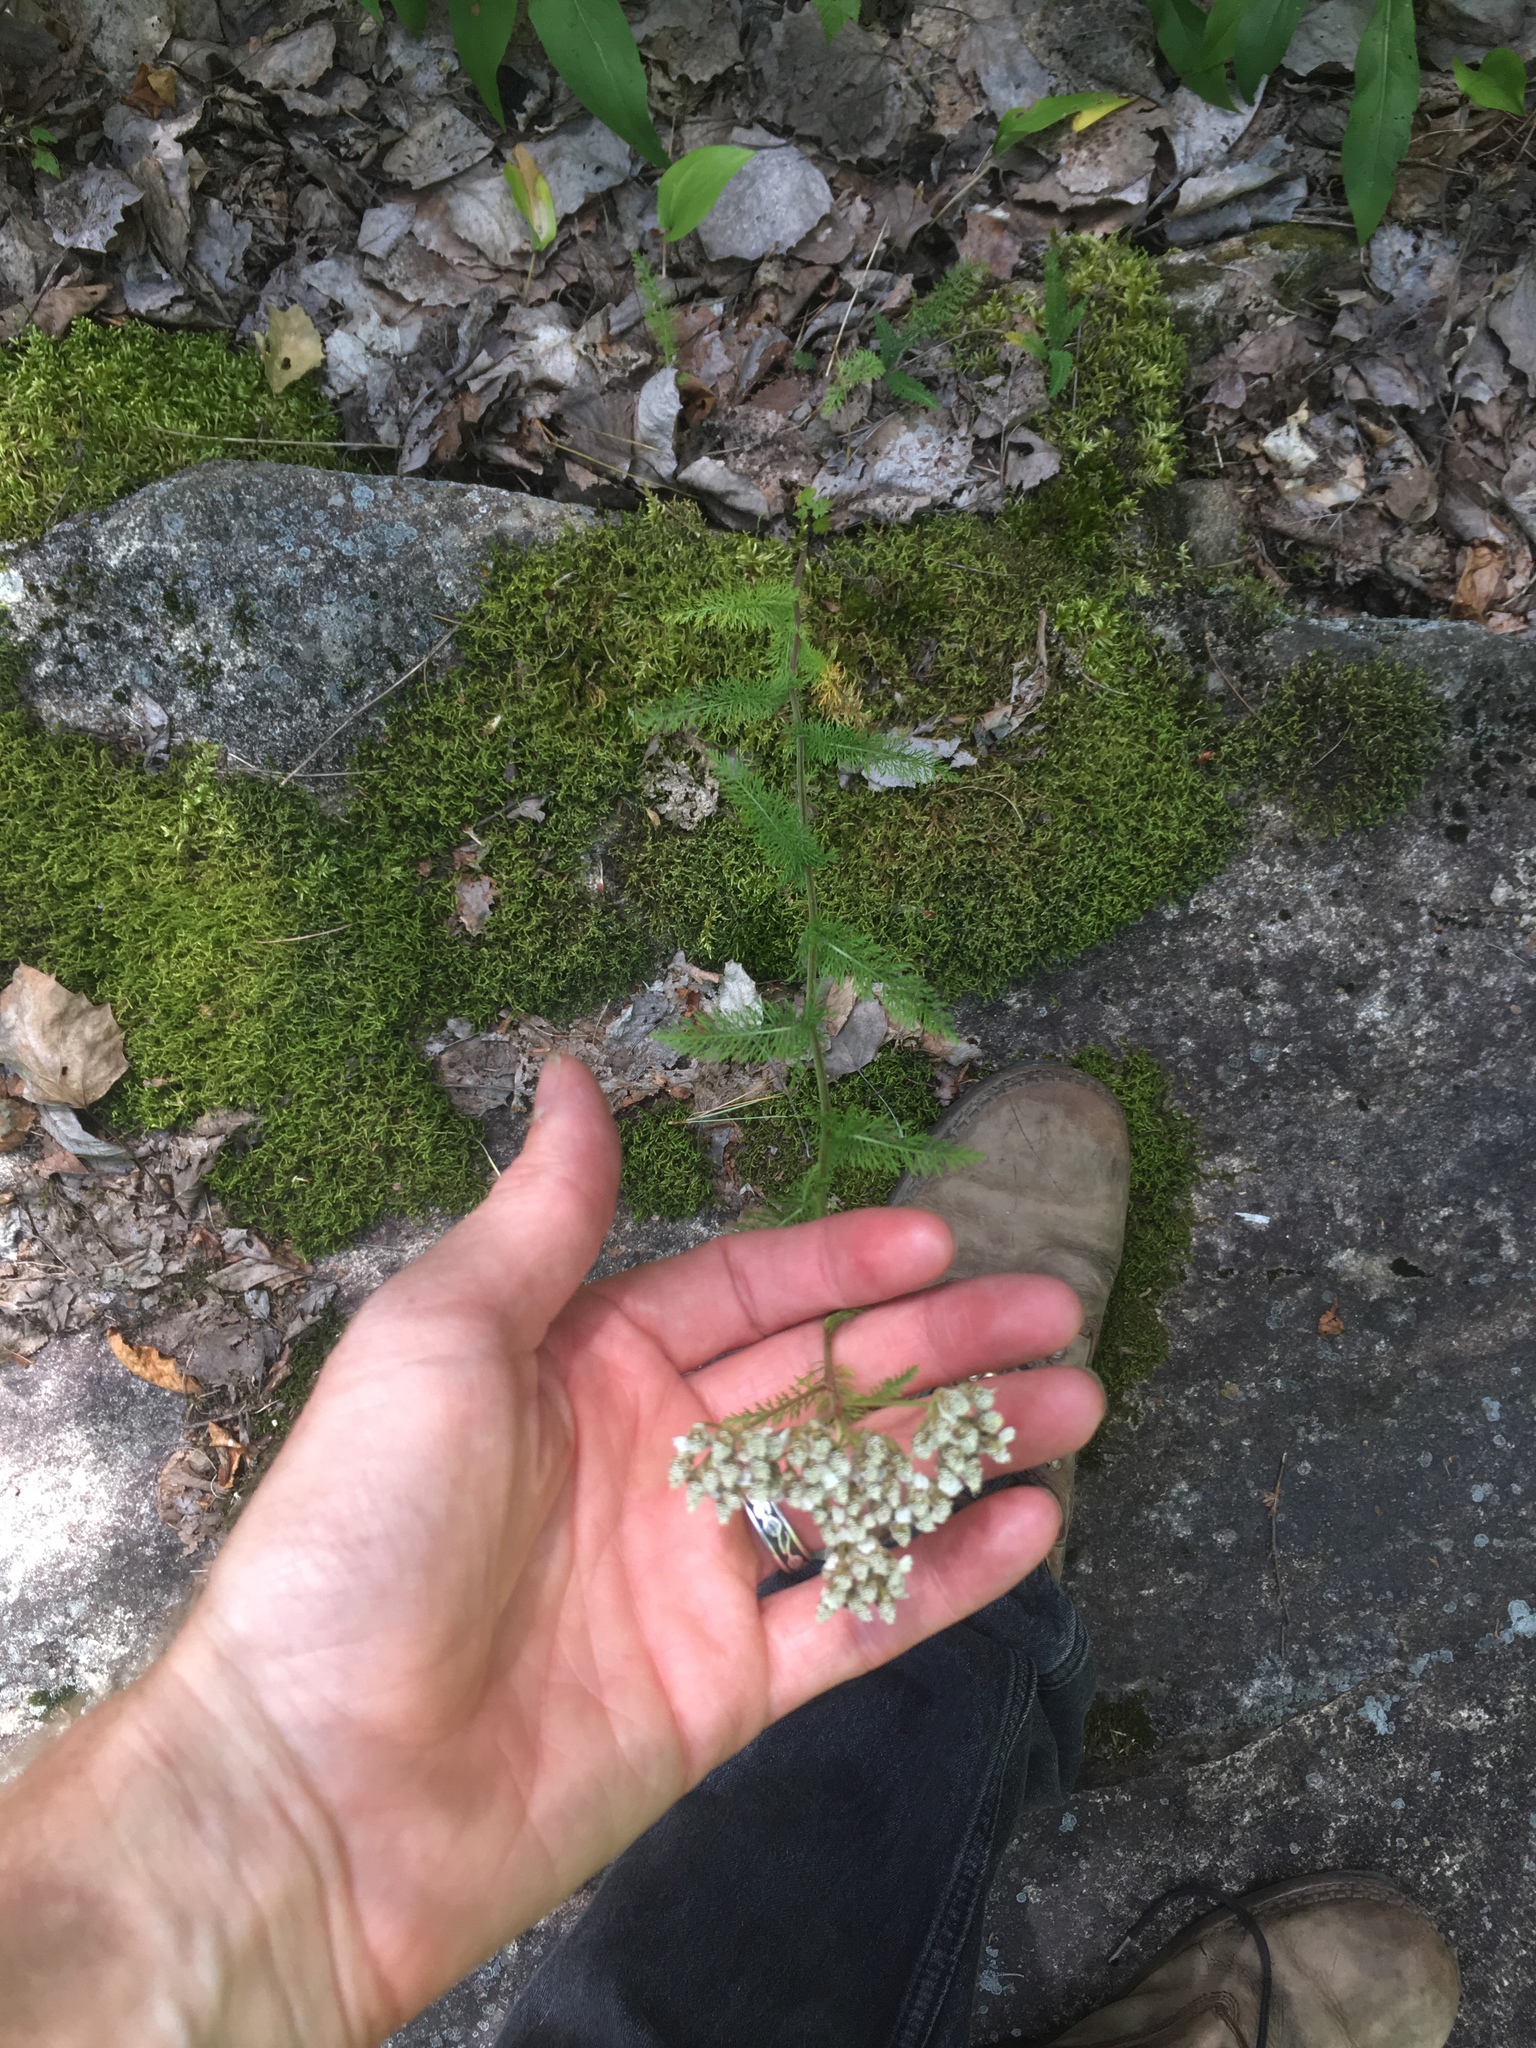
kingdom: Plantae
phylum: Tracheophyta
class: Magnoliopsida
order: Asterales
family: Asteraceae
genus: Achillea
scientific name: Achillea millefolium
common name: Yarrow
